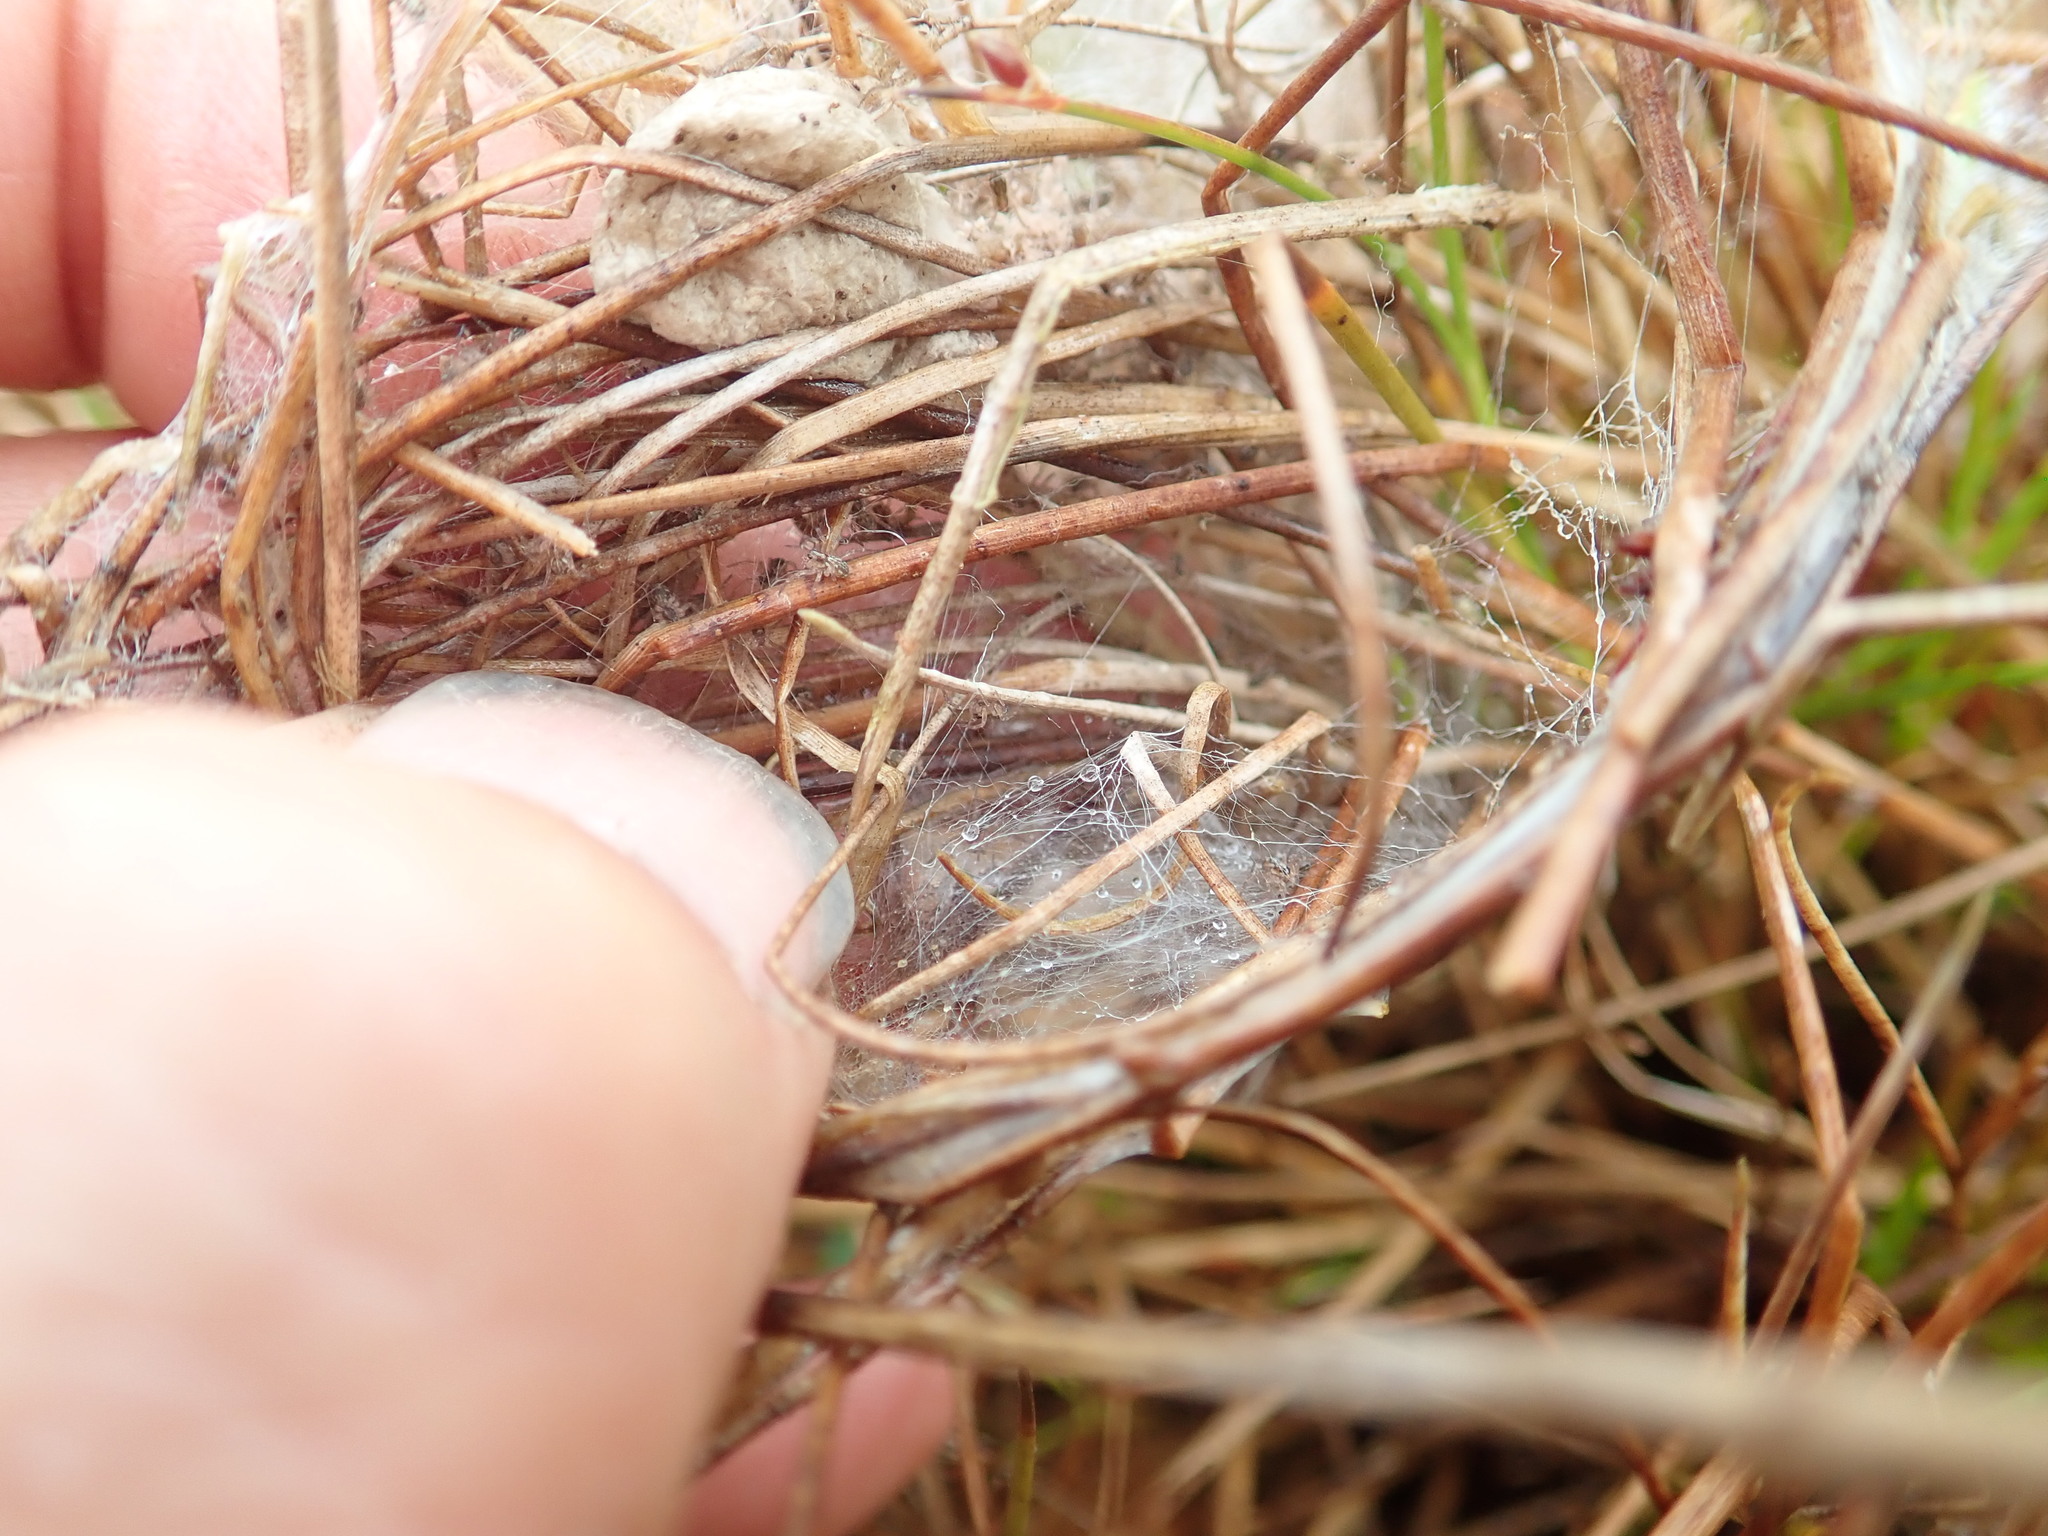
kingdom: Animalia
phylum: Arthropoda
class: Arachnida
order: Araneae
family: Pisauridae
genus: Dolomedes
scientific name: Dolomedes minor
